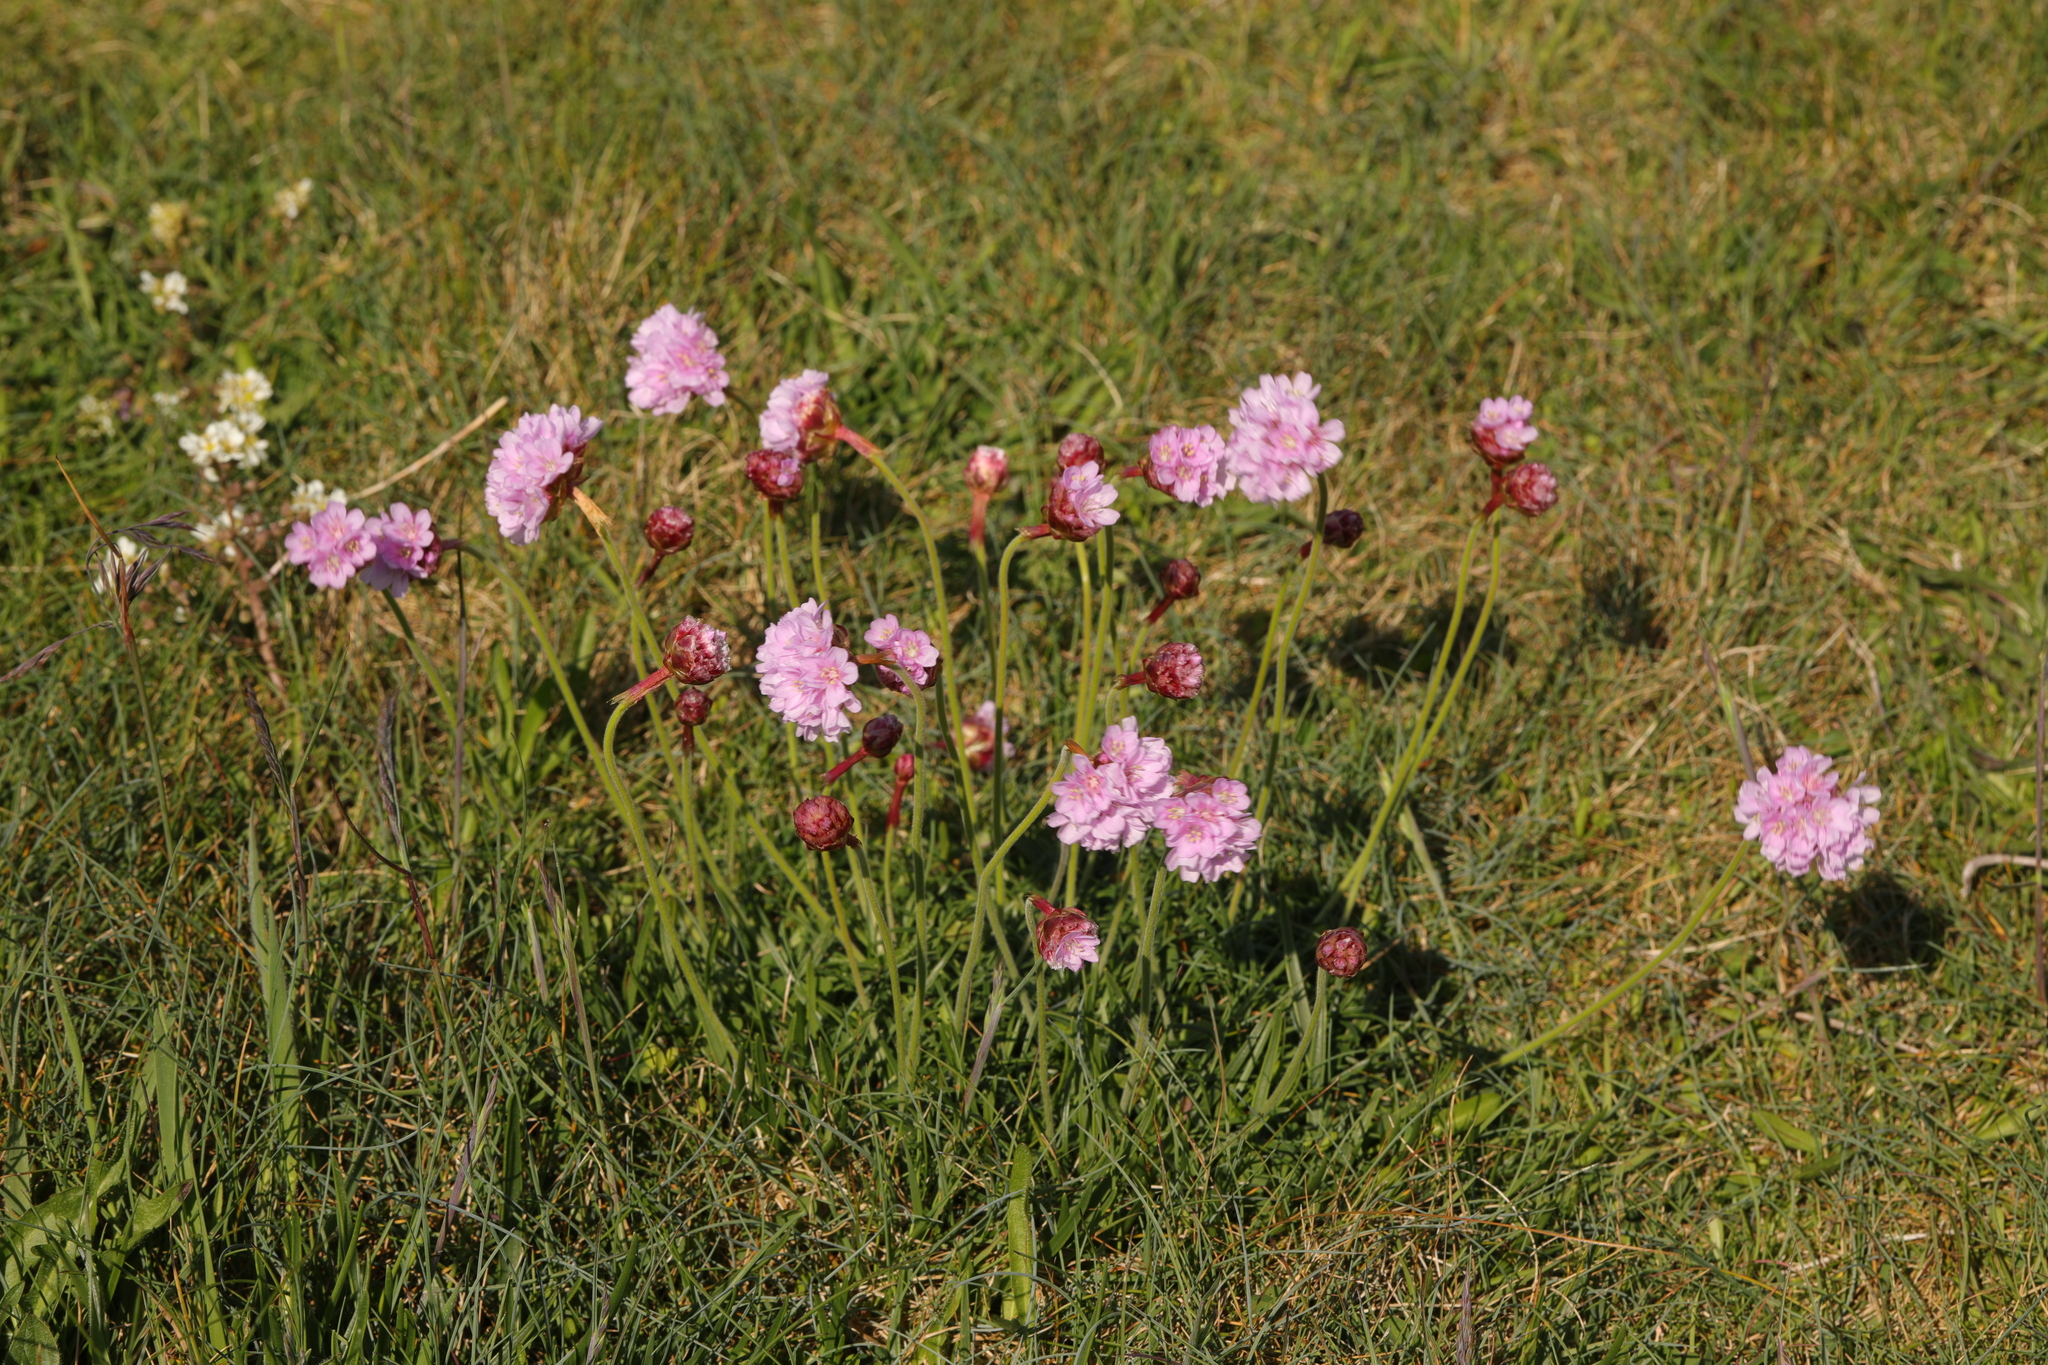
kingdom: Plantae
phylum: Tracheophyta
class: Magnoliopsida
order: Caryophyllales
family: Plumbaginaceae
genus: Armeria
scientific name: Armeria maritima
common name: Thrift
